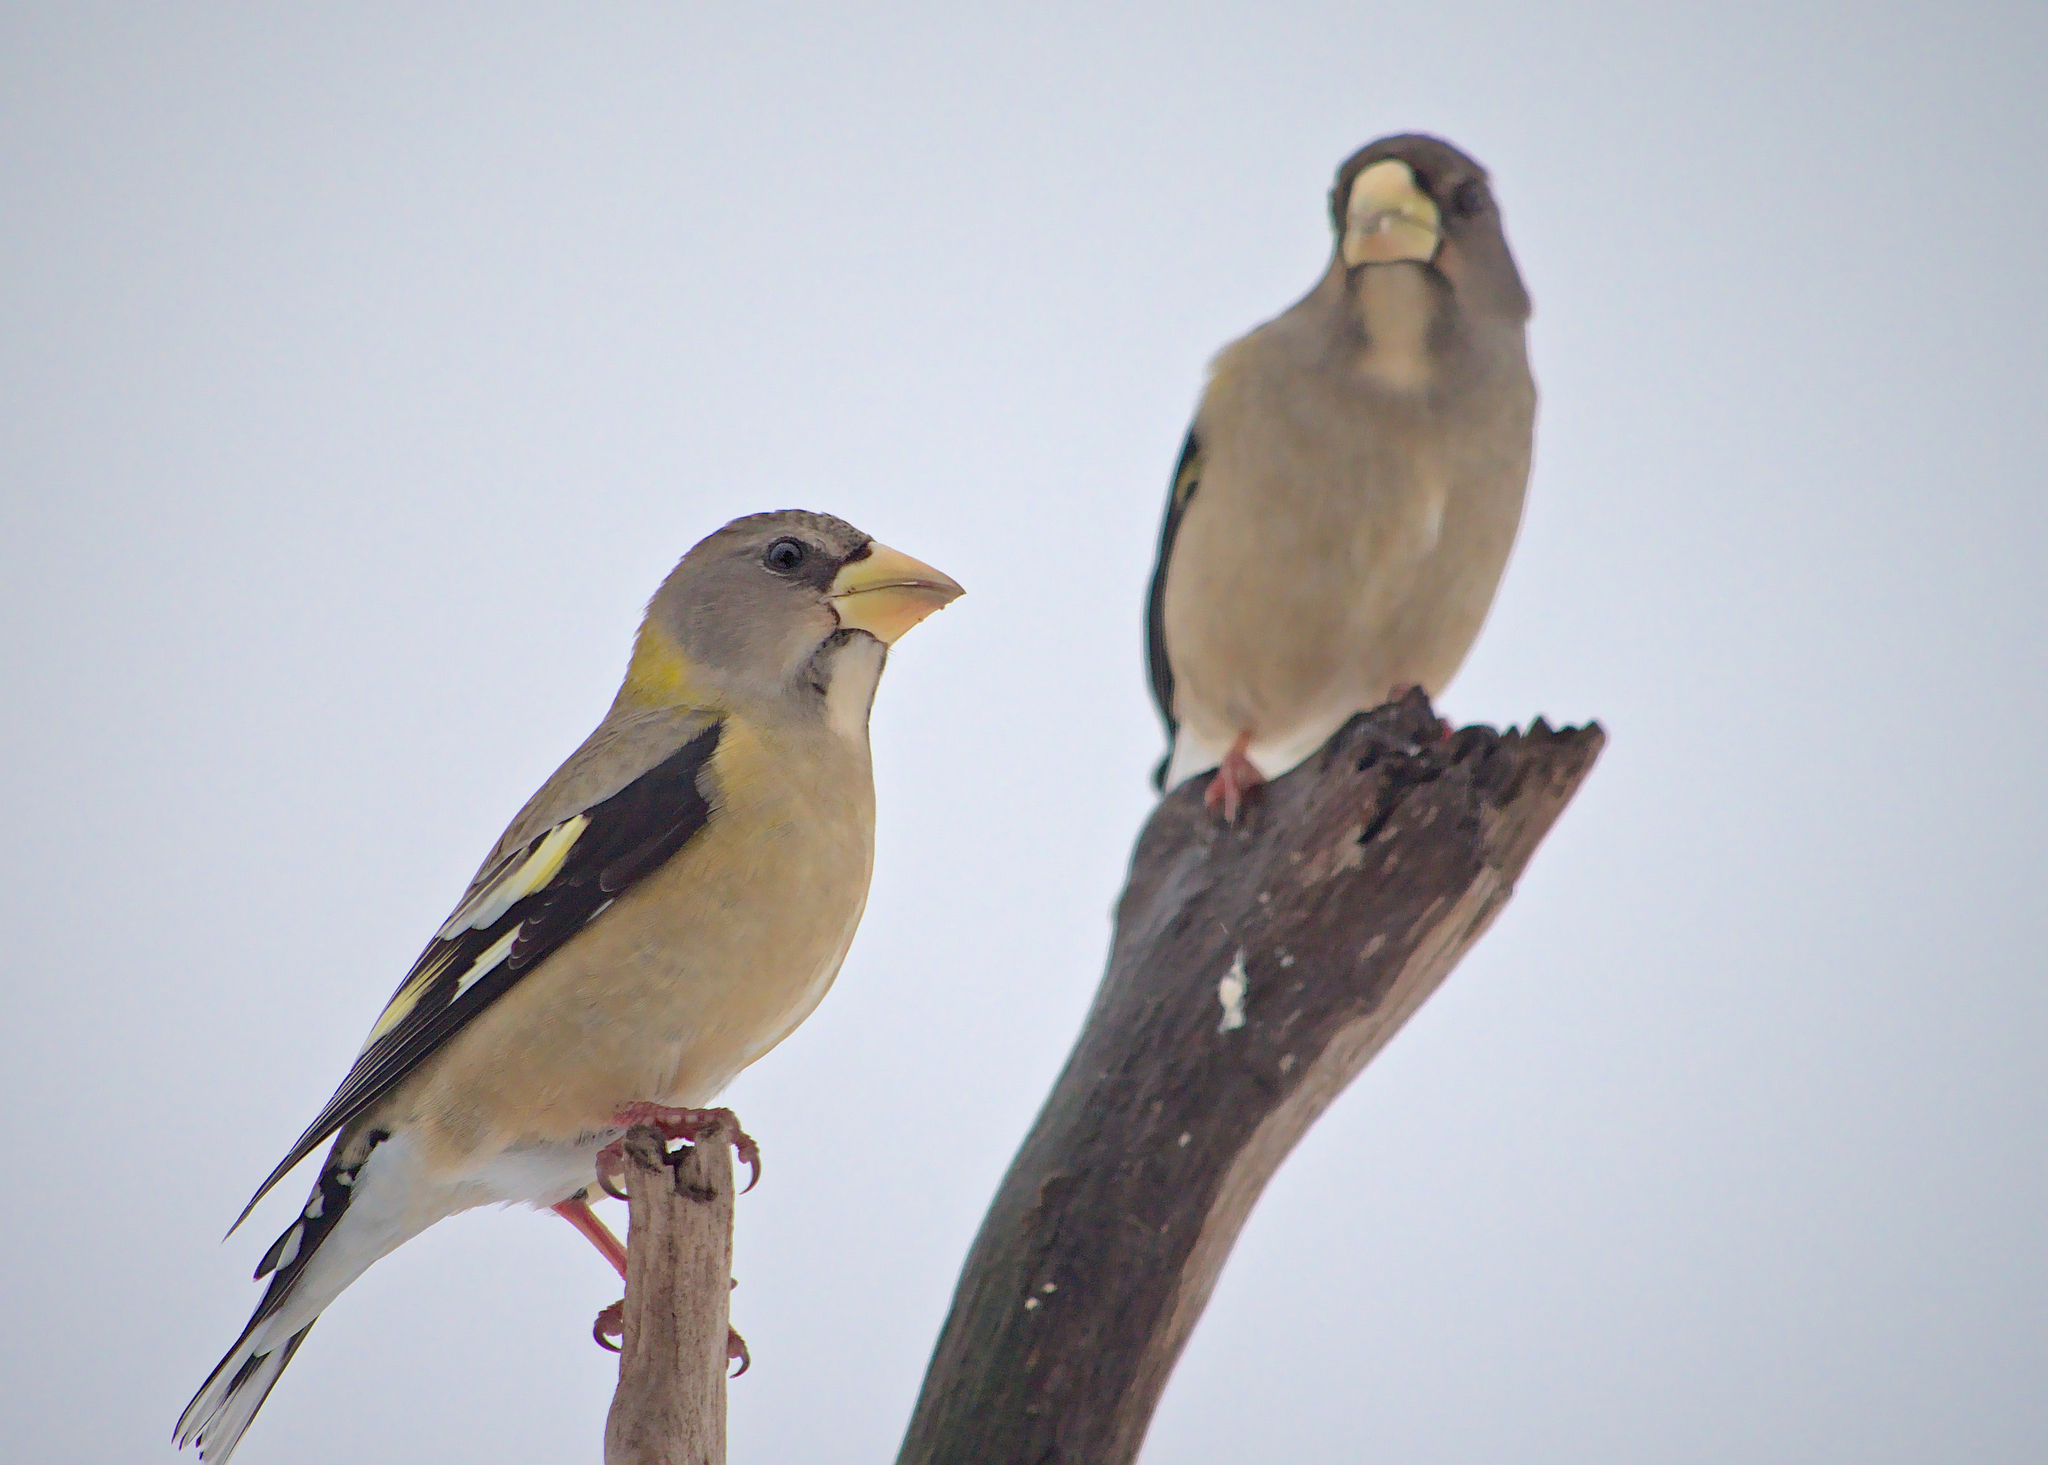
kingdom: Animalia
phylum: Chordata
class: Aves
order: Passeriformes
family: Fringillidae
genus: Hesperiphona
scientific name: Hesperiphona vespertina
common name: Evening grosbeak
